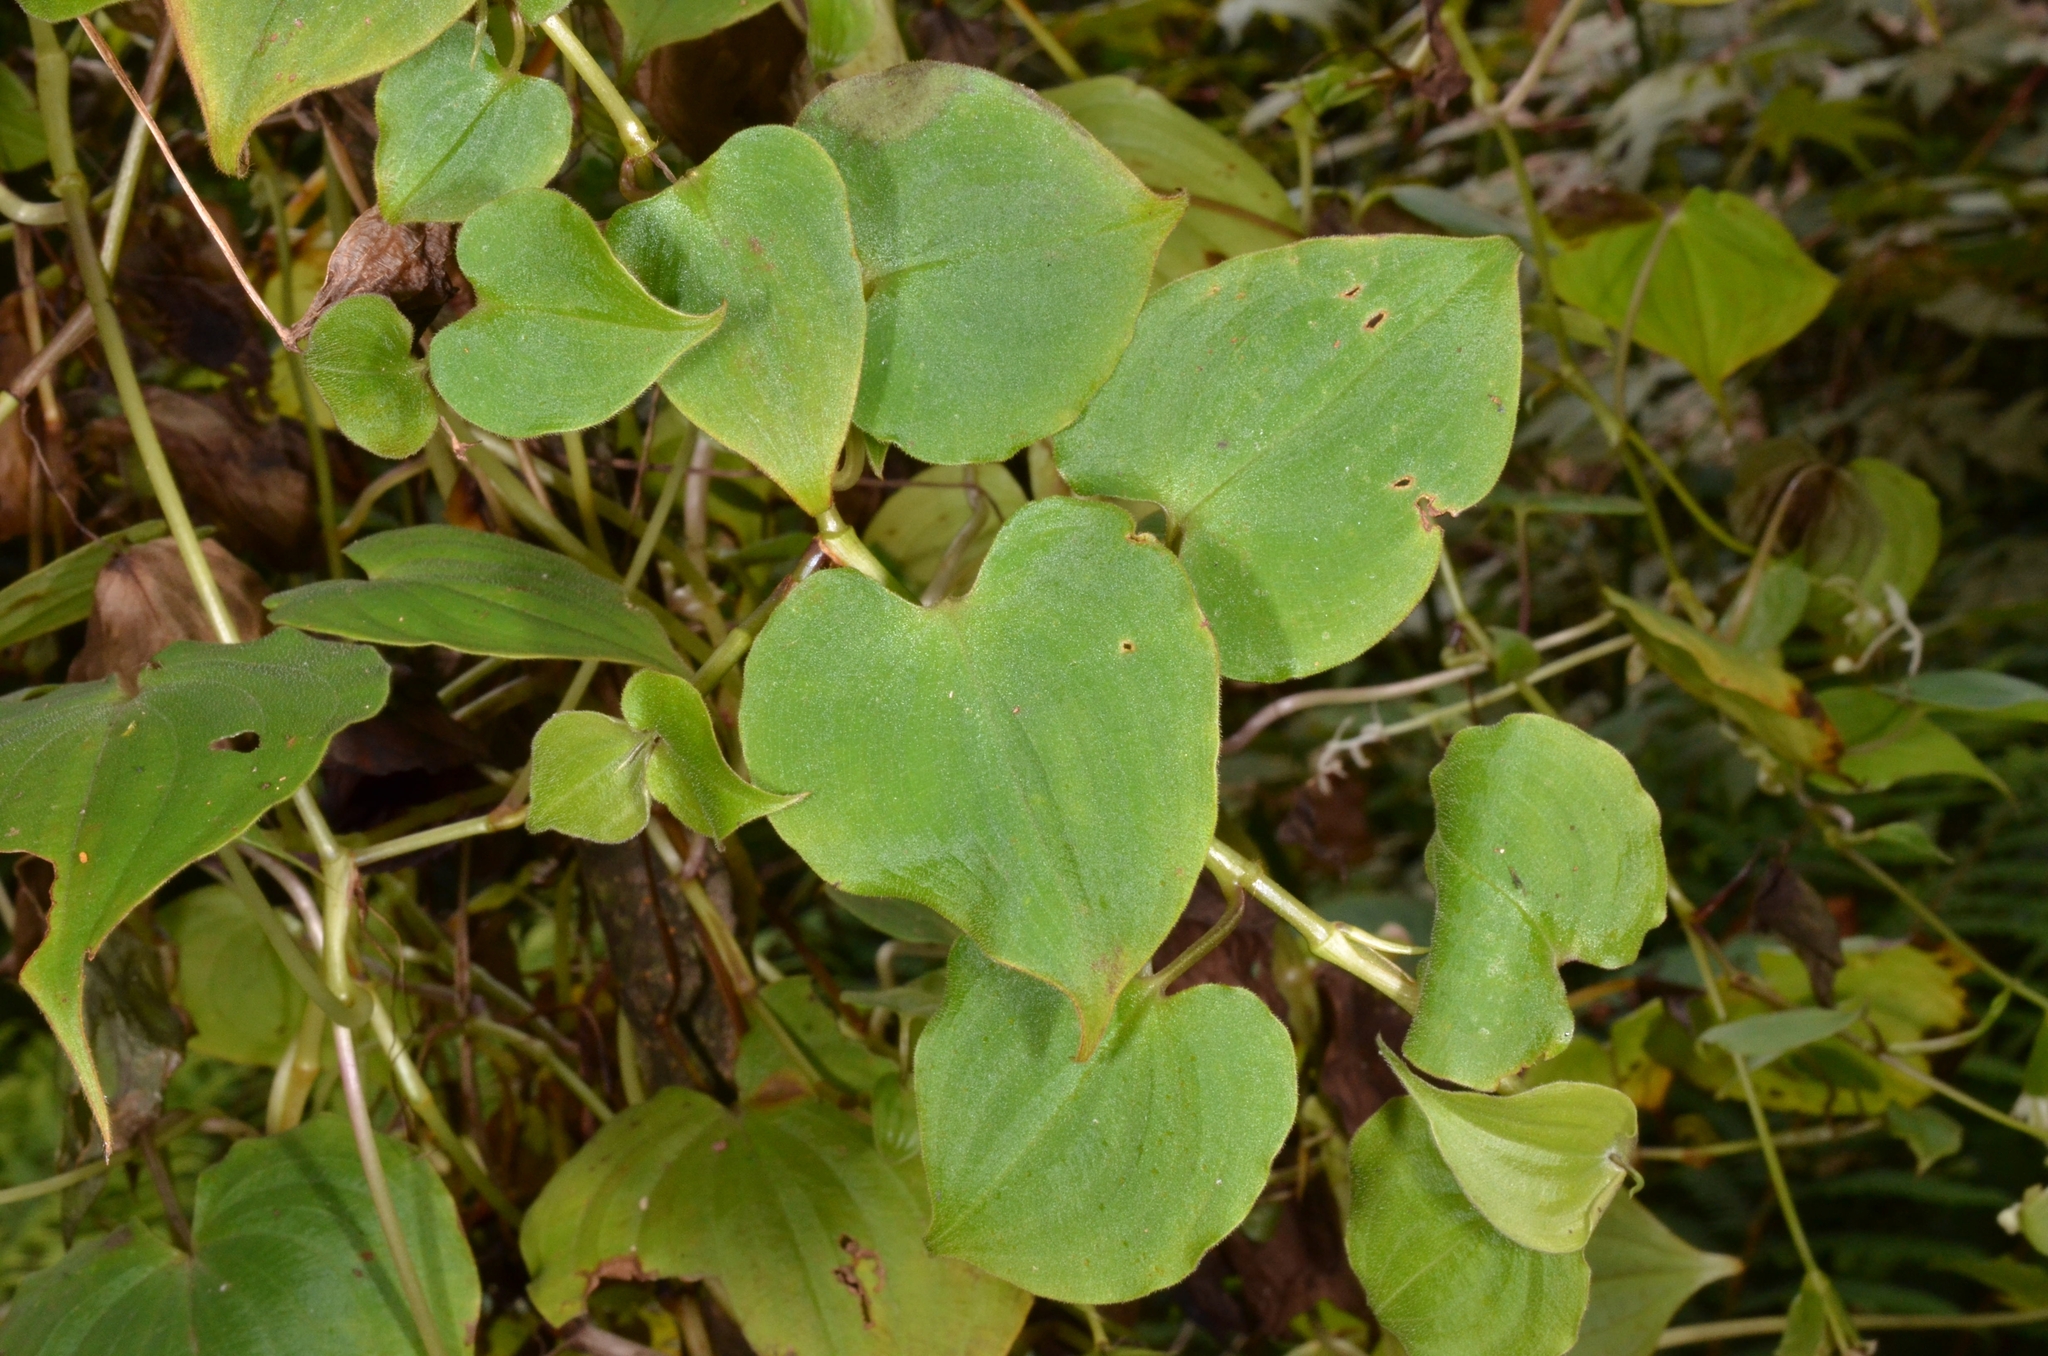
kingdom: Plantae
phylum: Tracheophyta
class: Liliopsida
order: Commelinales
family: Commelinaceae
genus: Streptolirion
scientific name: Streptolirion volubile
